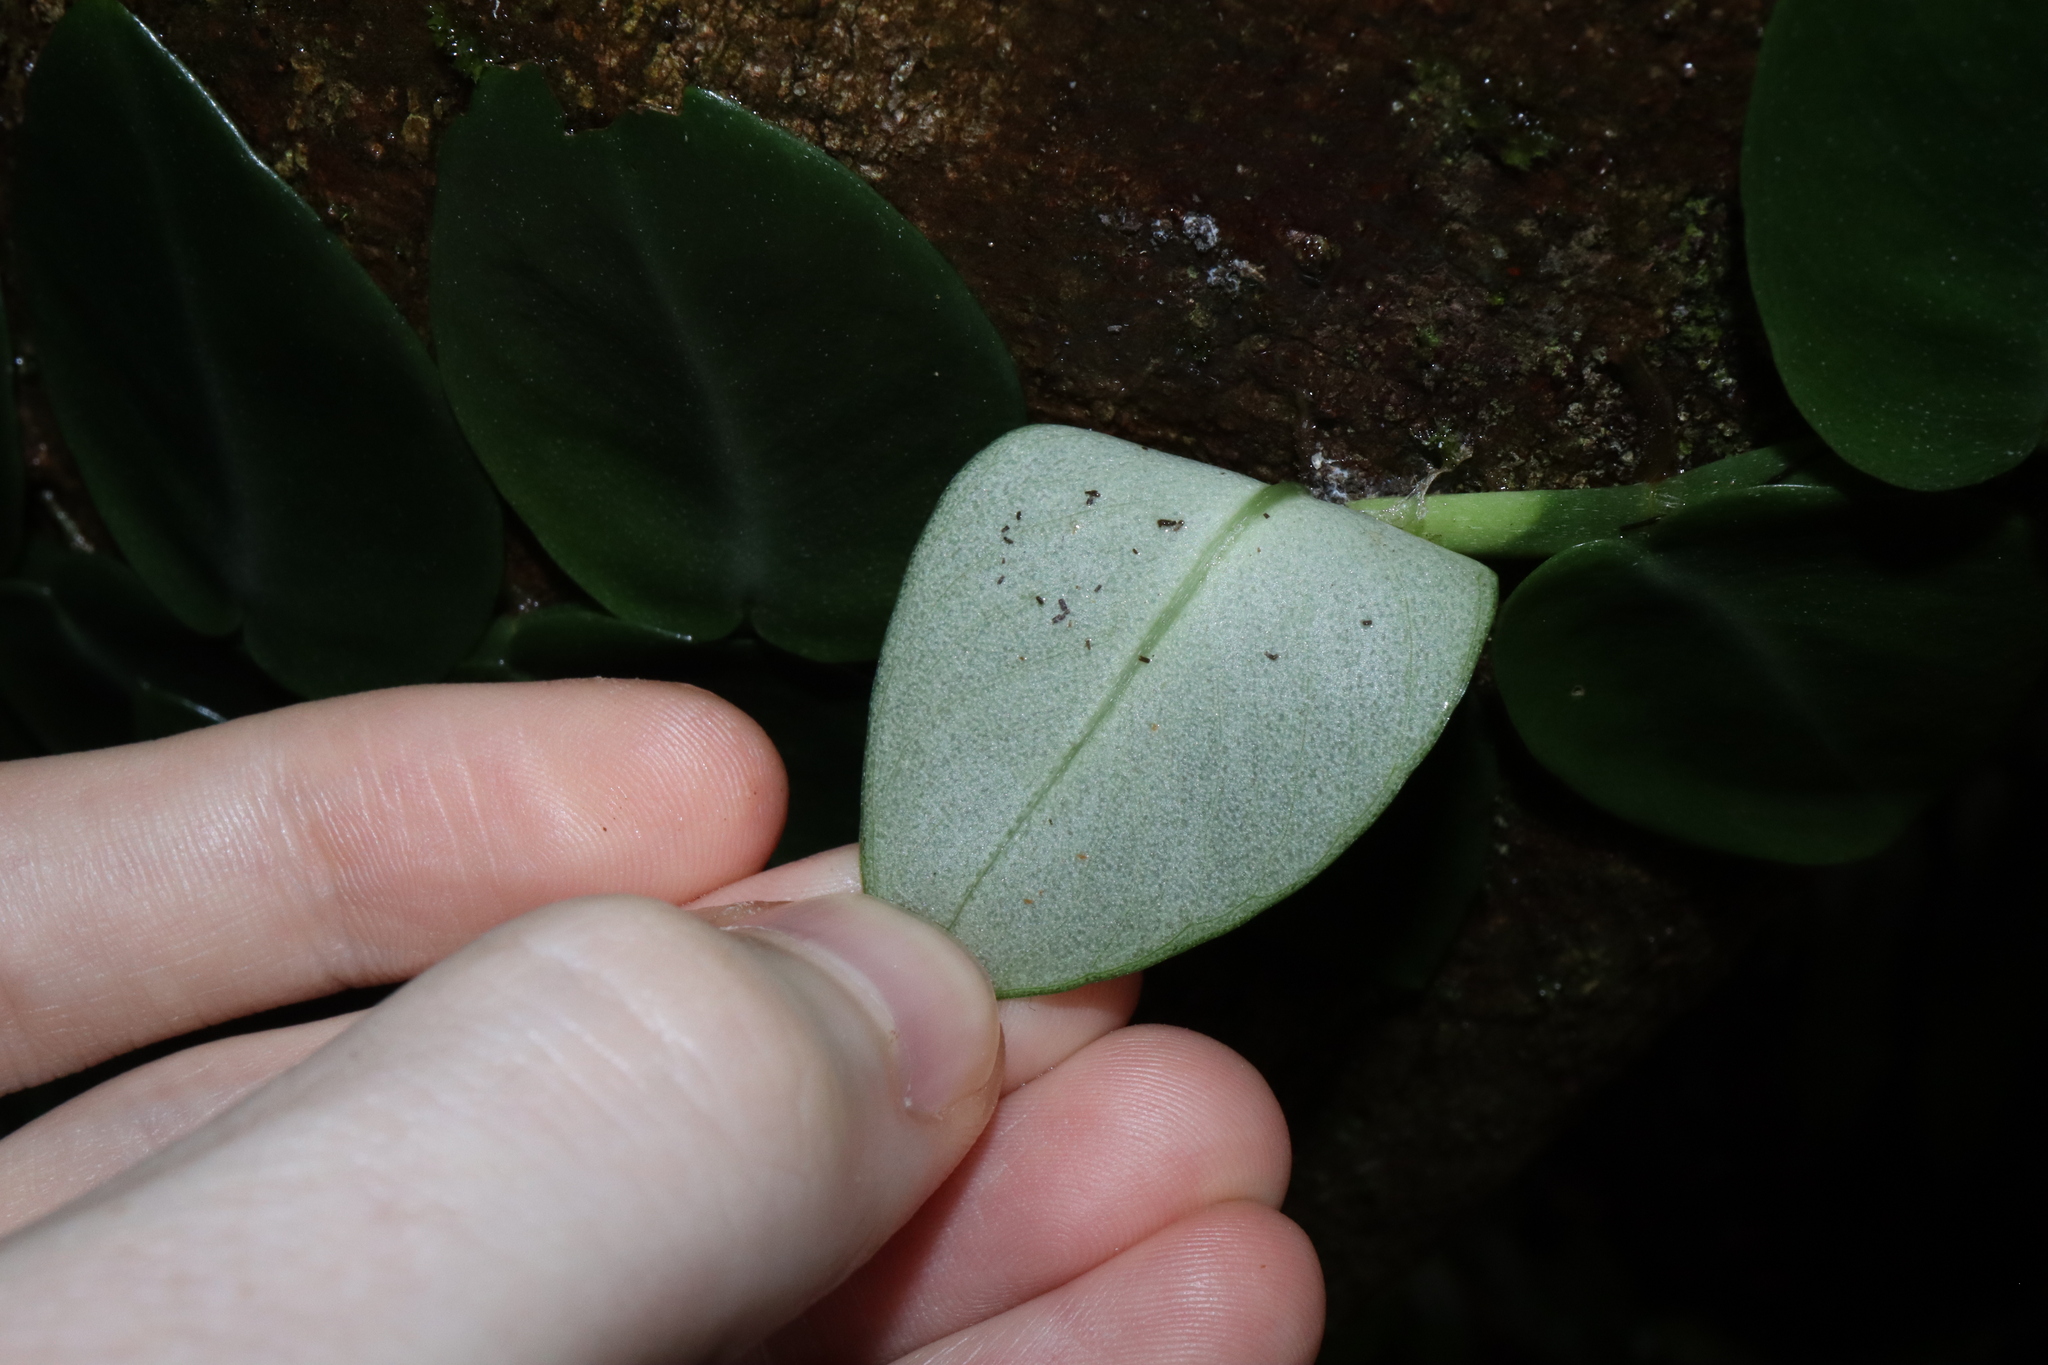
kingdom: Plantae
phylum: Tracheophyta
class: Liliopsida
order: Alismatales
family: Araceae
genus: Rhaphidophora
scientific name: Rhaphidophora hayi
